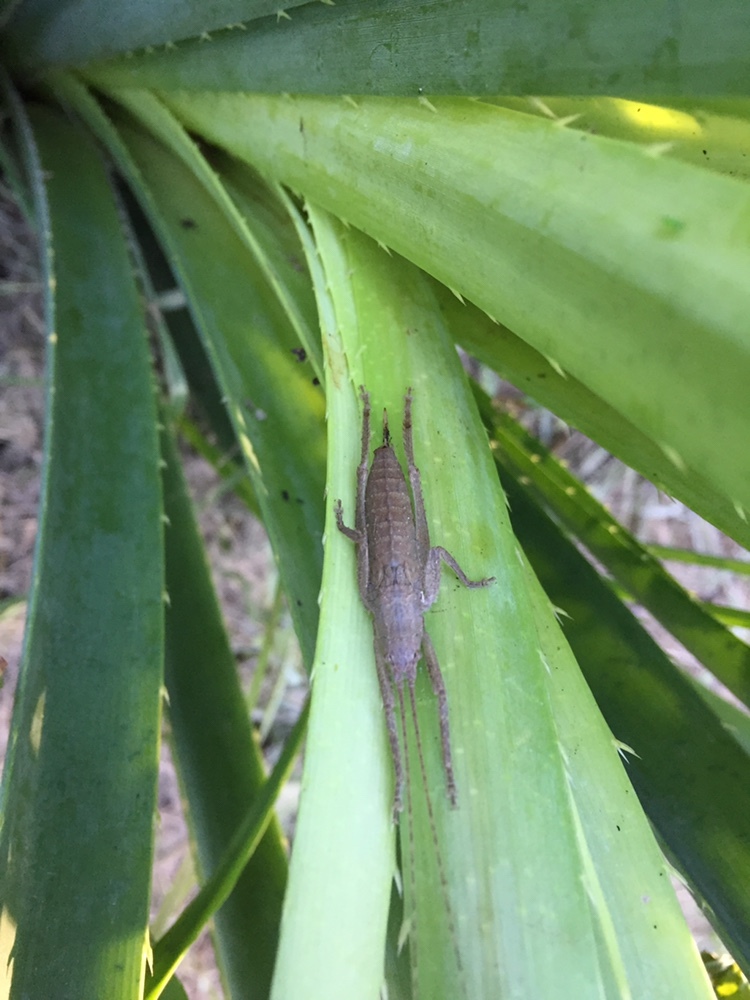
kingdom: Animalia
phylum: Arthropoda
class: Insecta
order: Orthoptera
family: Tettigoniidae
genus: Dasyscelus
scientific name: Dasyscelus normalis
